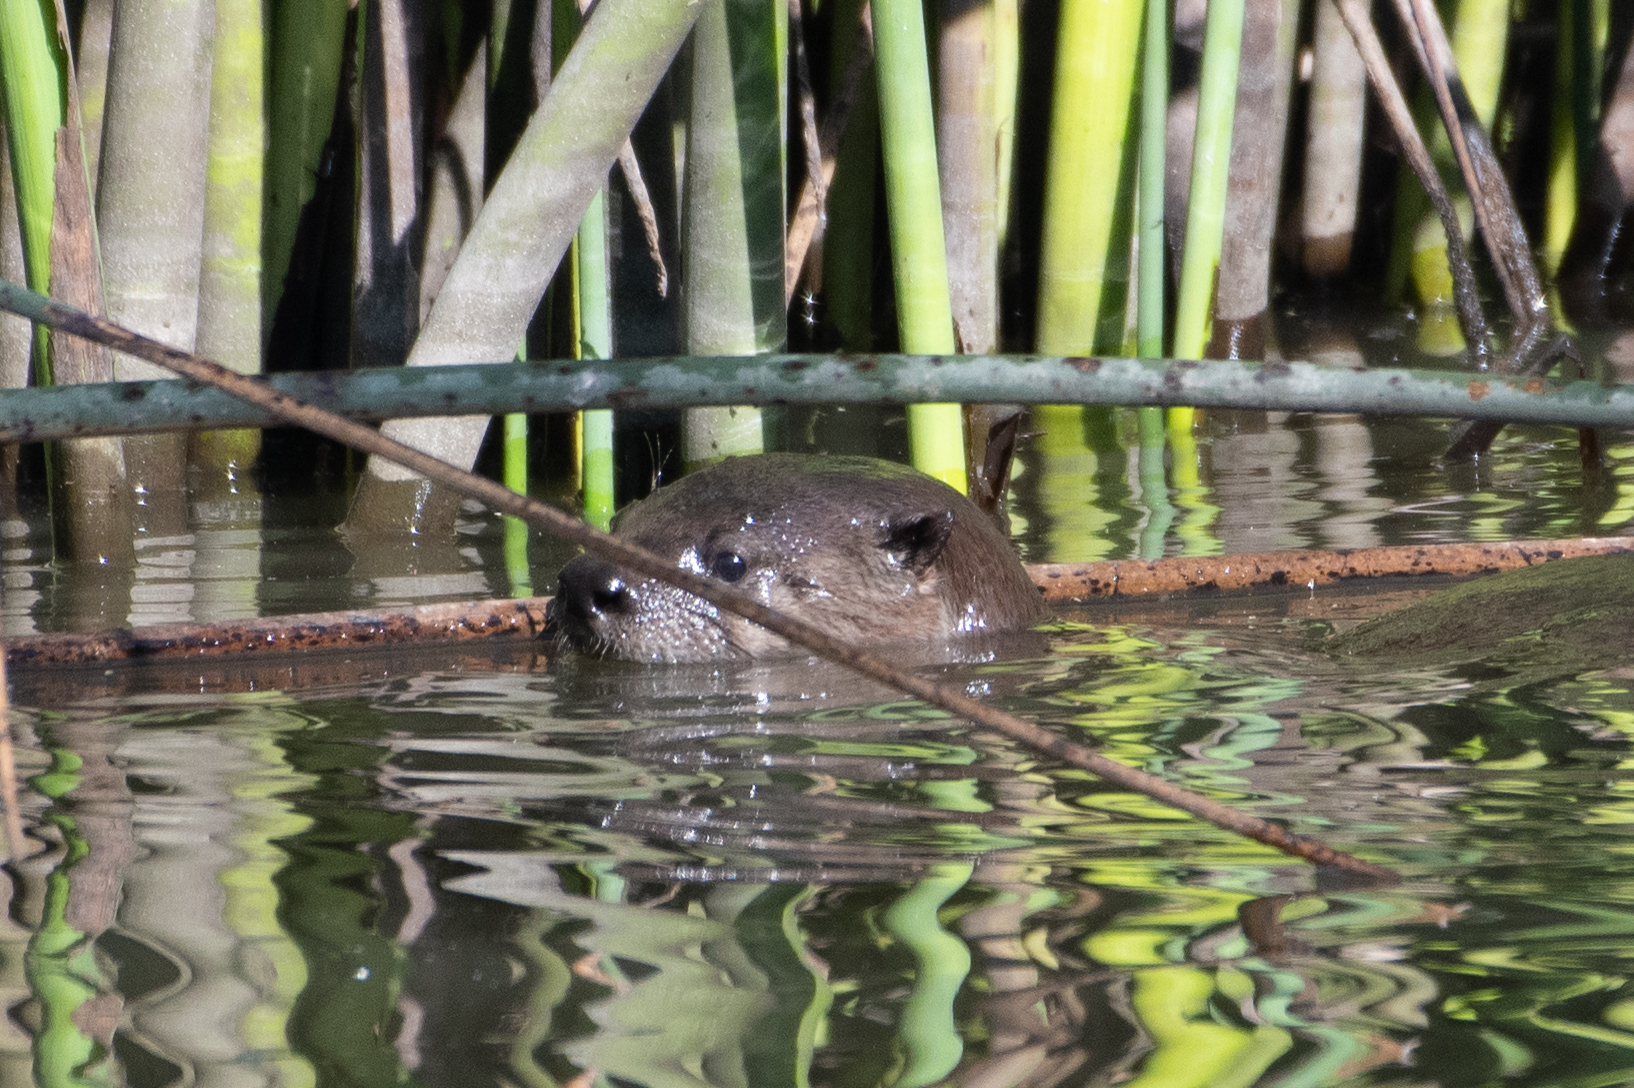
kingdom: Animalia
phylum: Chordata
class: Mammalia
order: Carnivora
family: Mustelidae
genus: Lontra
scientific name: Lontra canadensis
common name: North american river otter
